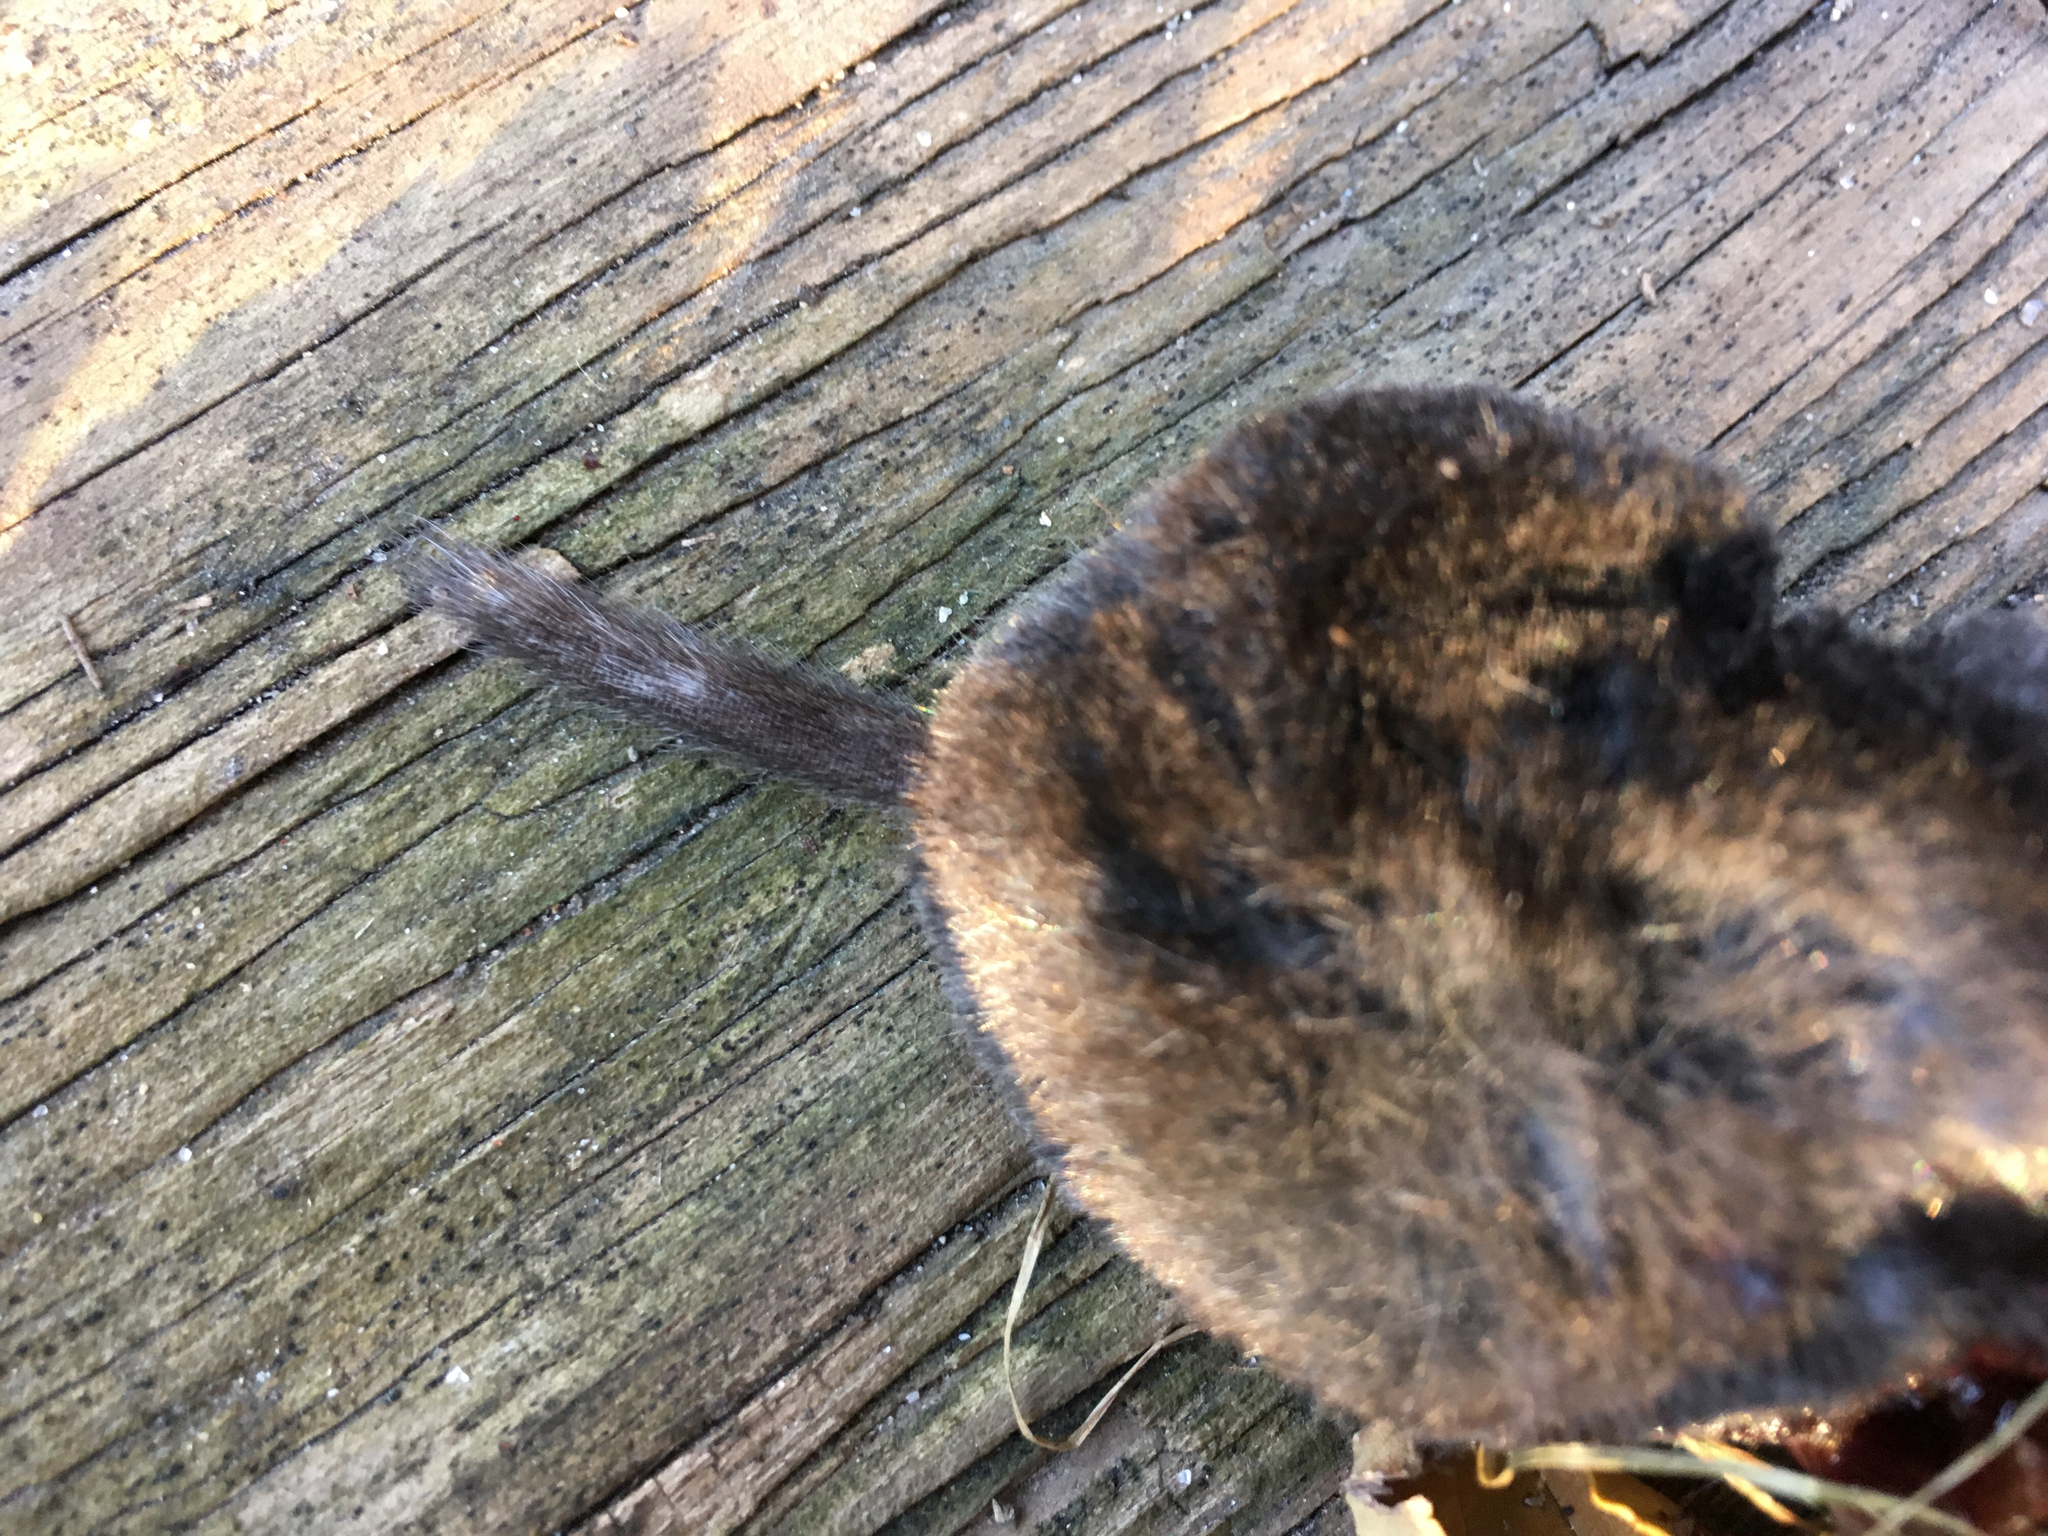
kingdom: Animalia
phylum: Chordata
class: Mammalia
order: Soricomorpha
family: Soricidae
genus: Blarina
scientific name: Blarina brevicauda
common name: Northern short-tailed shrew
